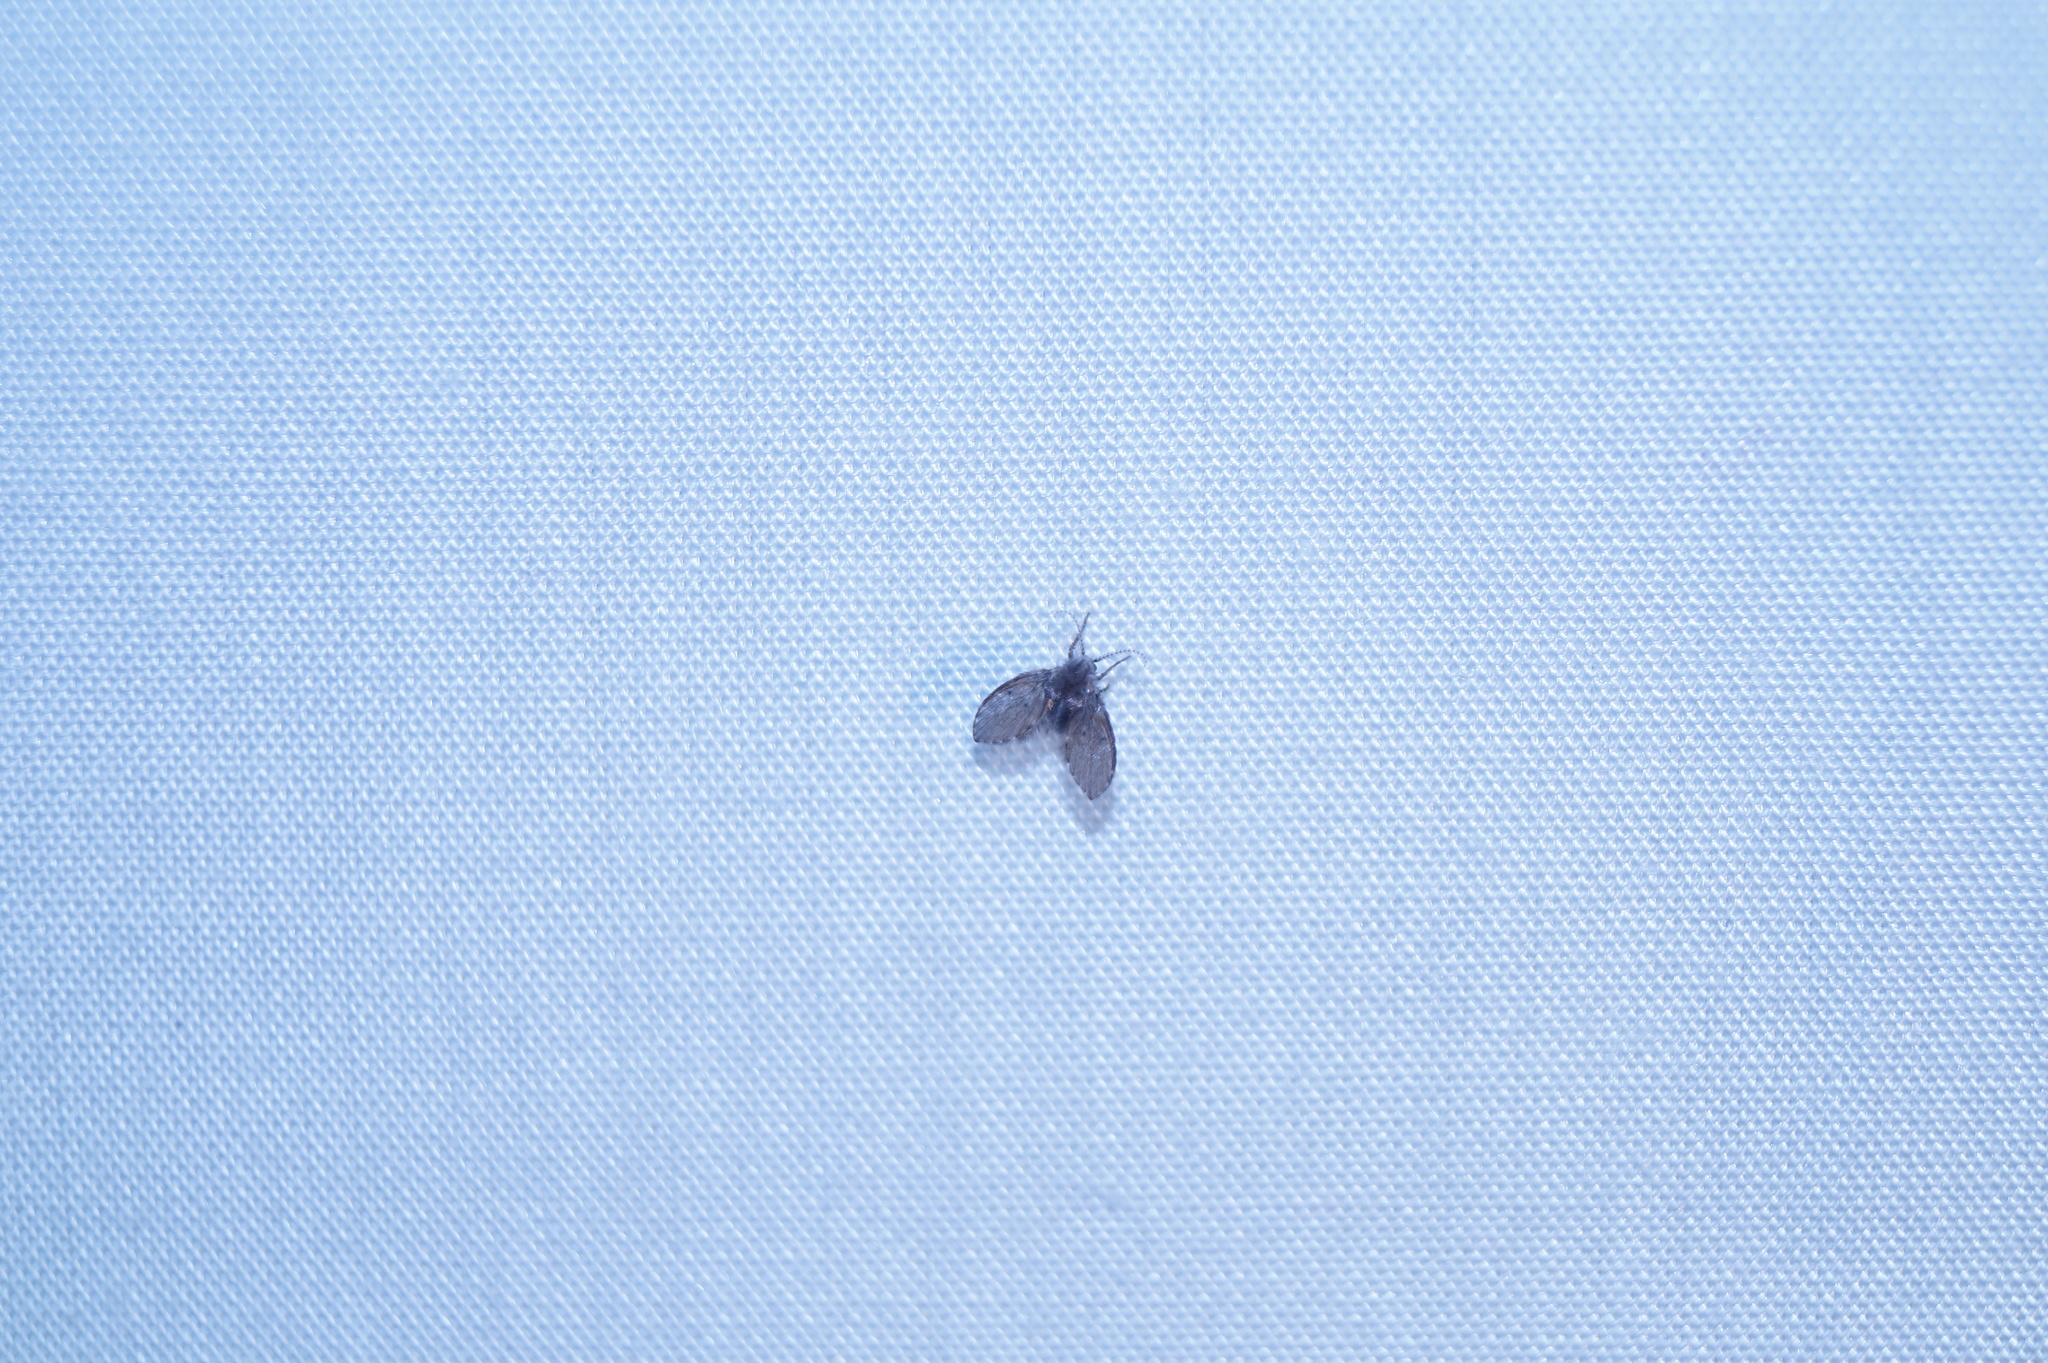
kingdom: Animalia
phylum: Arthropoda
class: Insecta
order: Diptera
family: Psychodidae
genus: Clogmia
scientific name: Clogmia albipunctatus
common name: White-spotted moth fly
